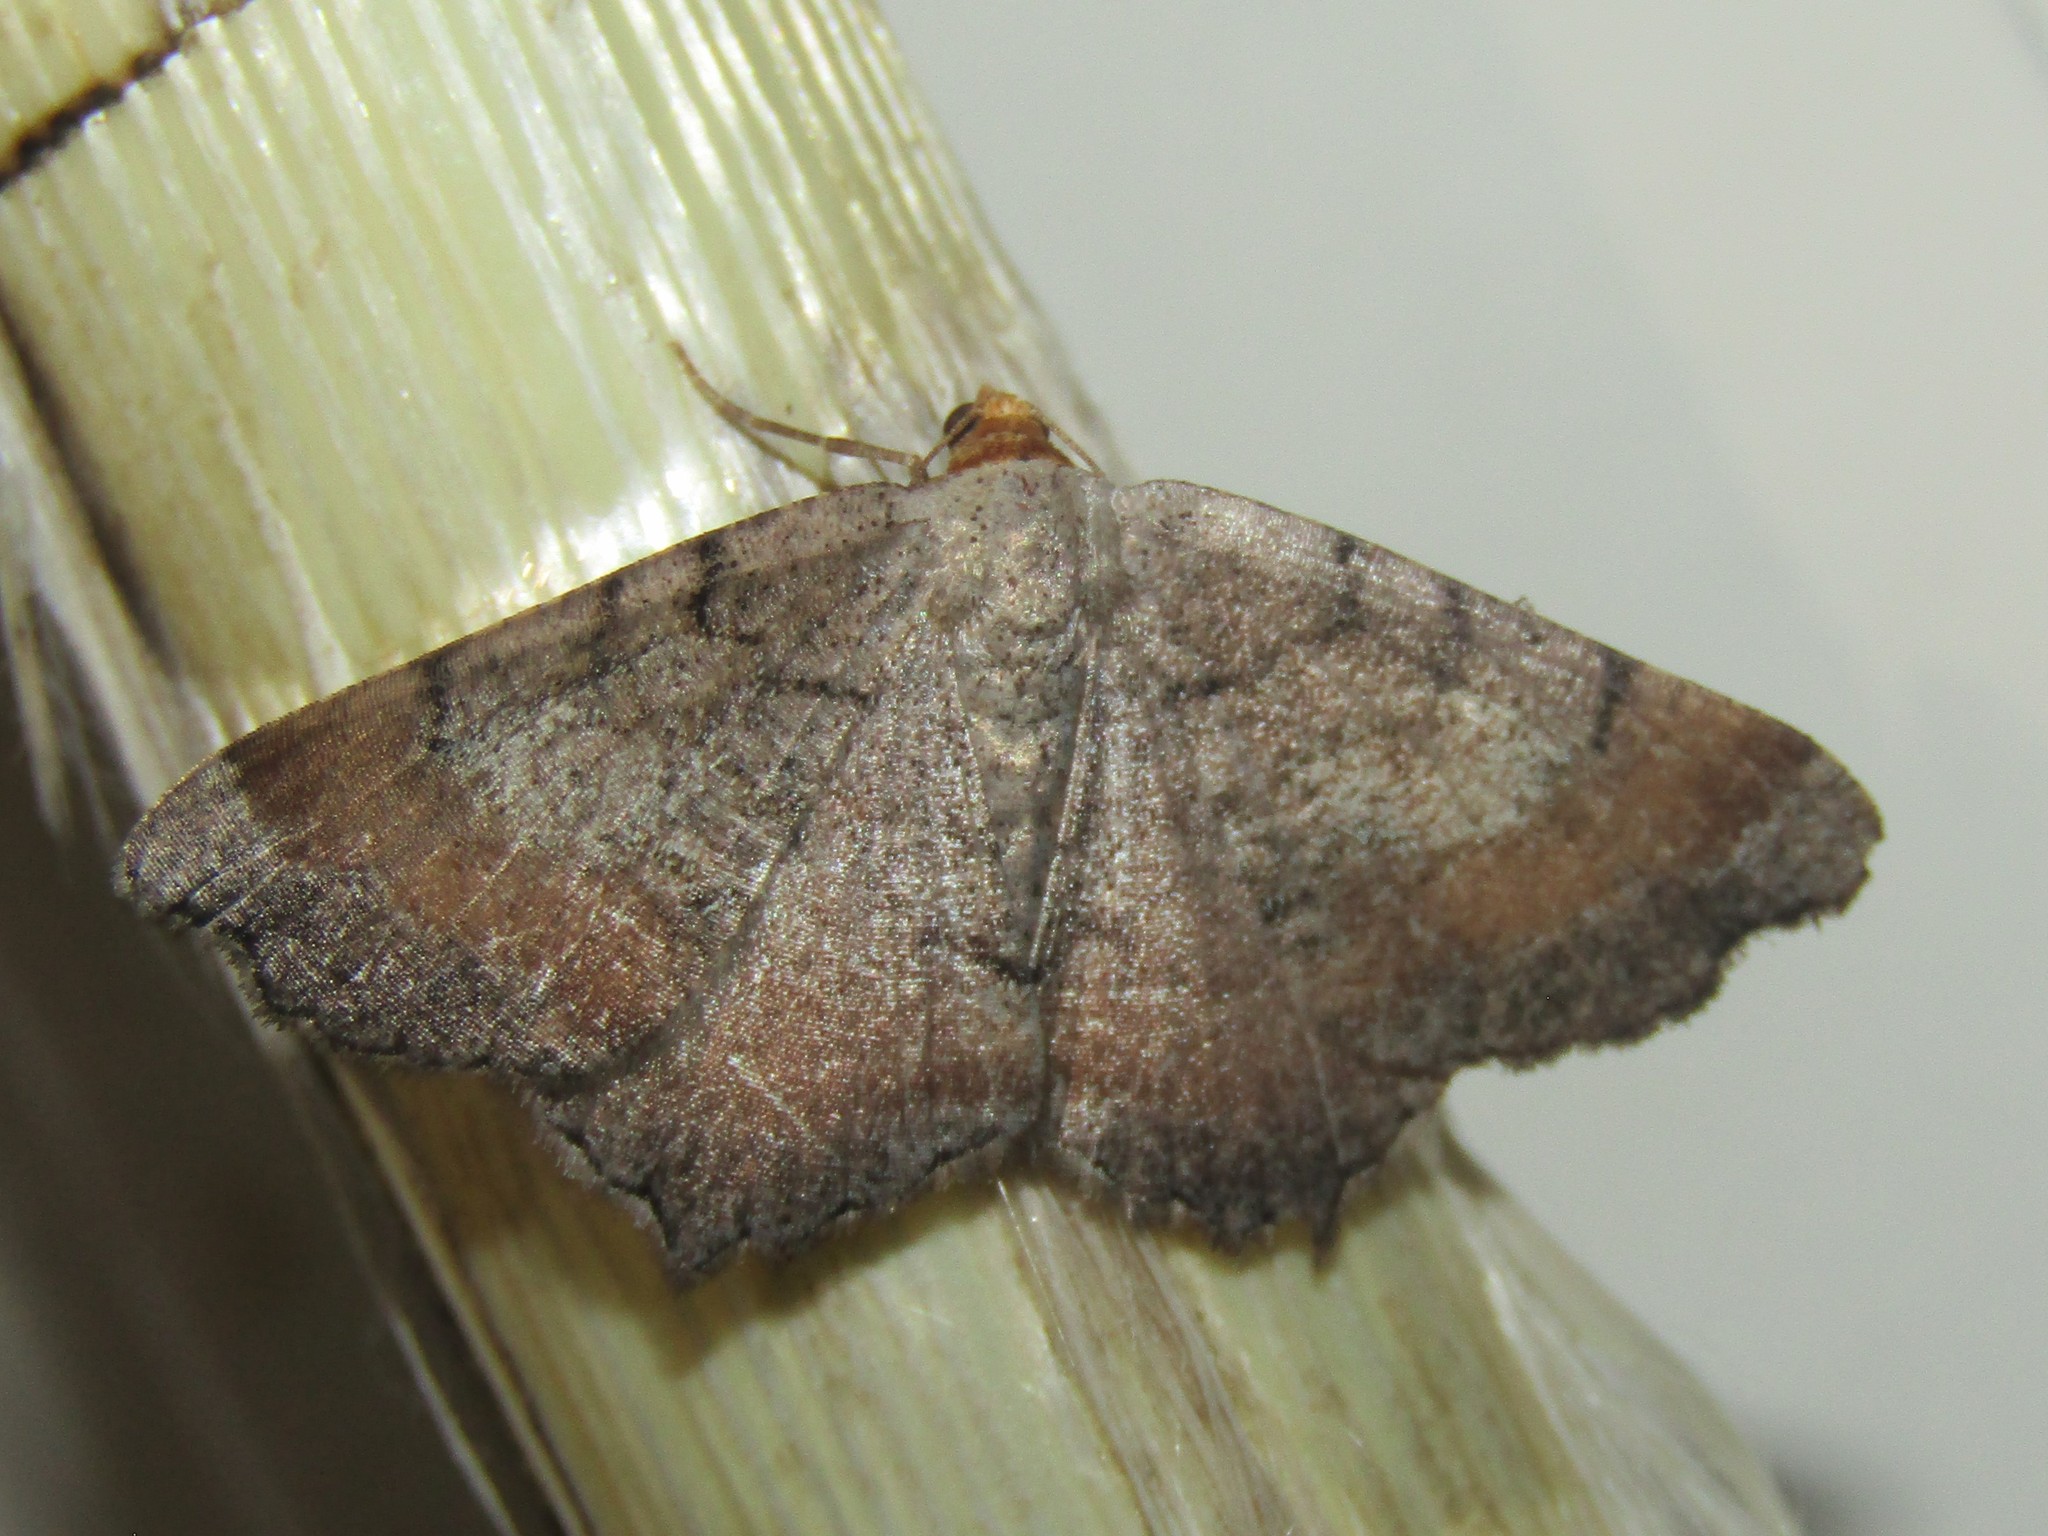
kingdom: Animalia
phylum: Arthropoda
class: Insecta
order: Lepidoptera
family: Geometridae
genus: Macaria
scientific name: Macaria transitaria
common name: Blurry chocolate angle
